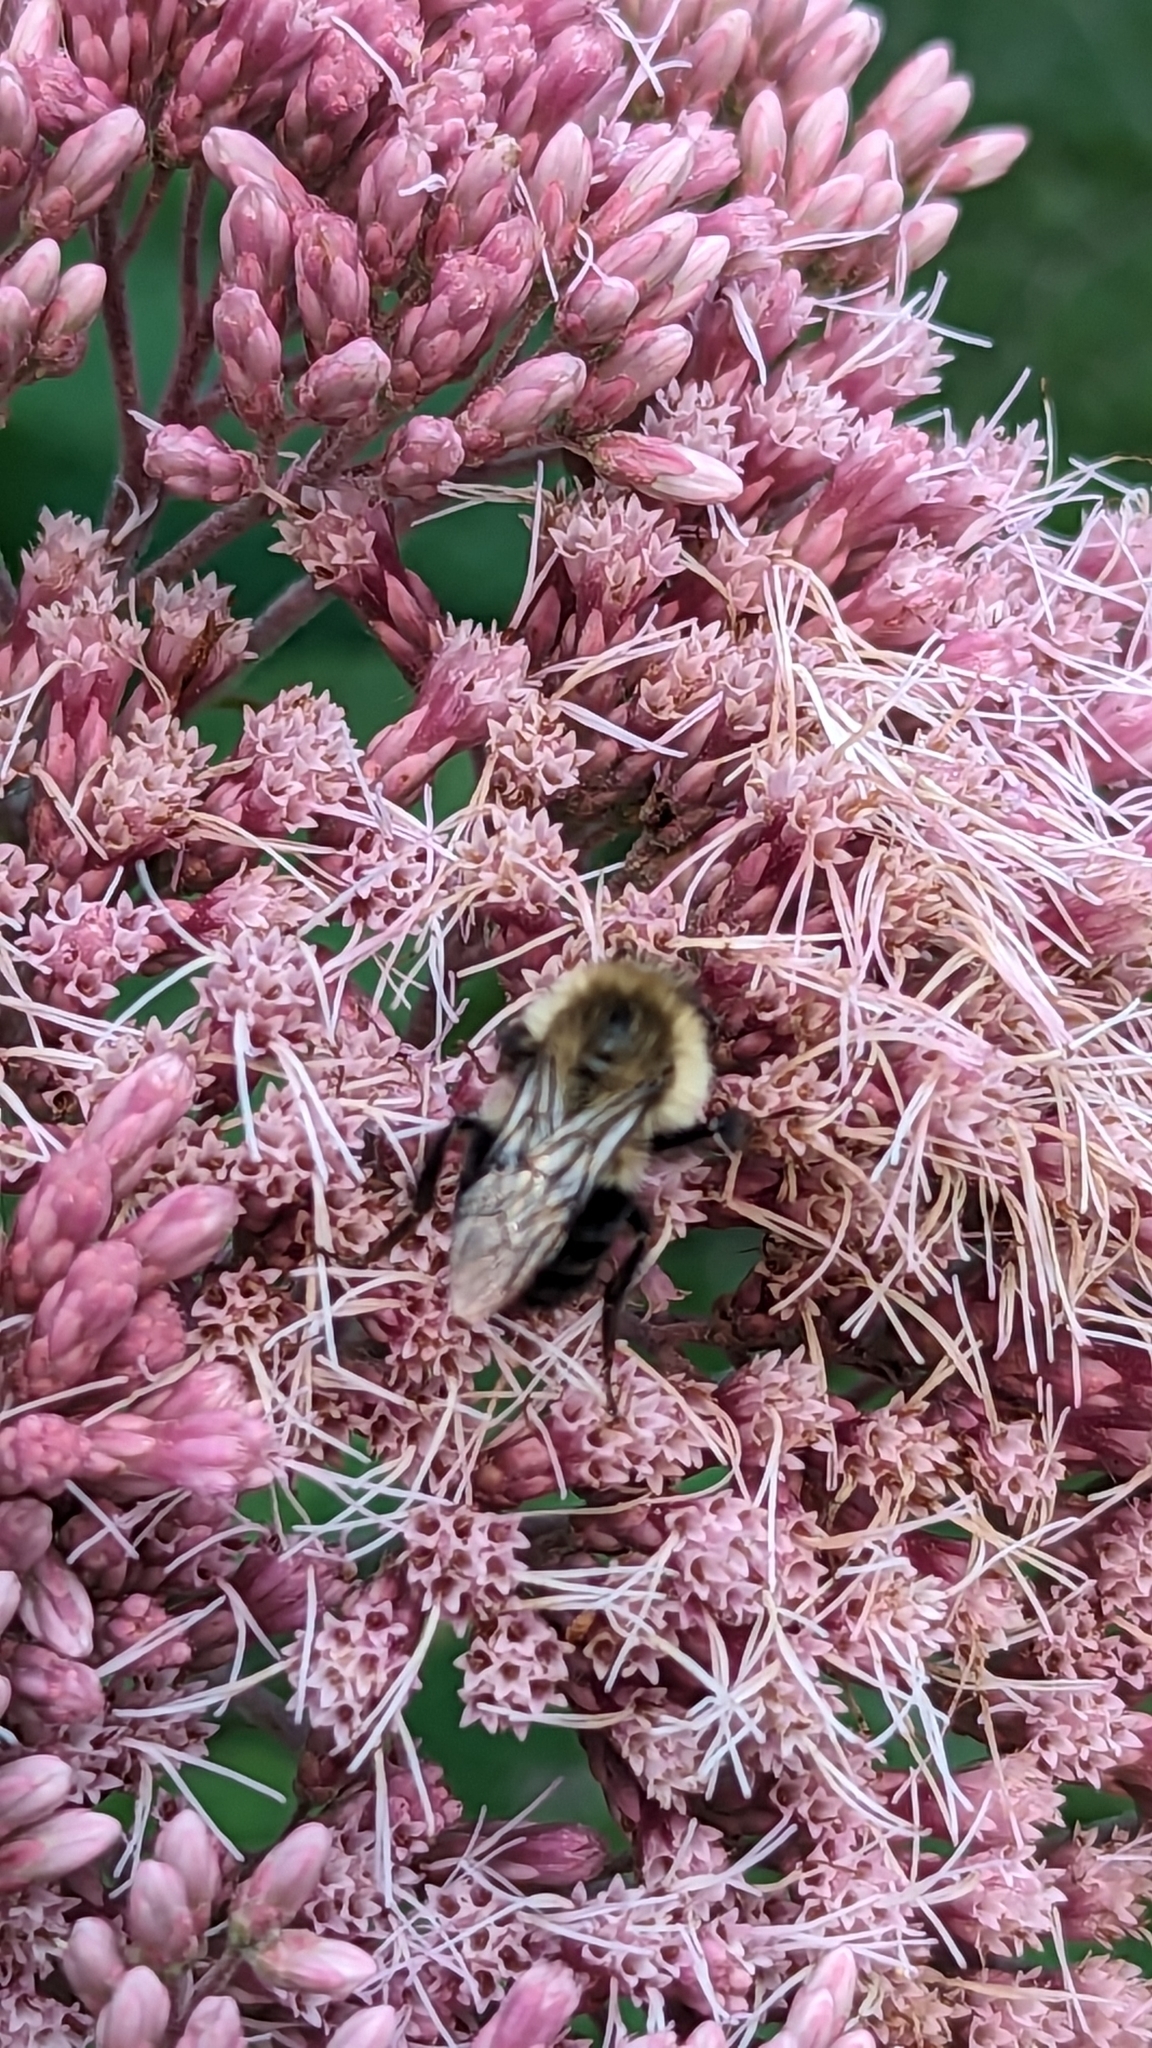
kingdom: Animalia
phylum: Arthropoda
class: Insecta
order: Hymenoptera
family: Apidae
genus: Bombus
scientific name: Bombus impatiens
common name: Common eastern bumble bee
